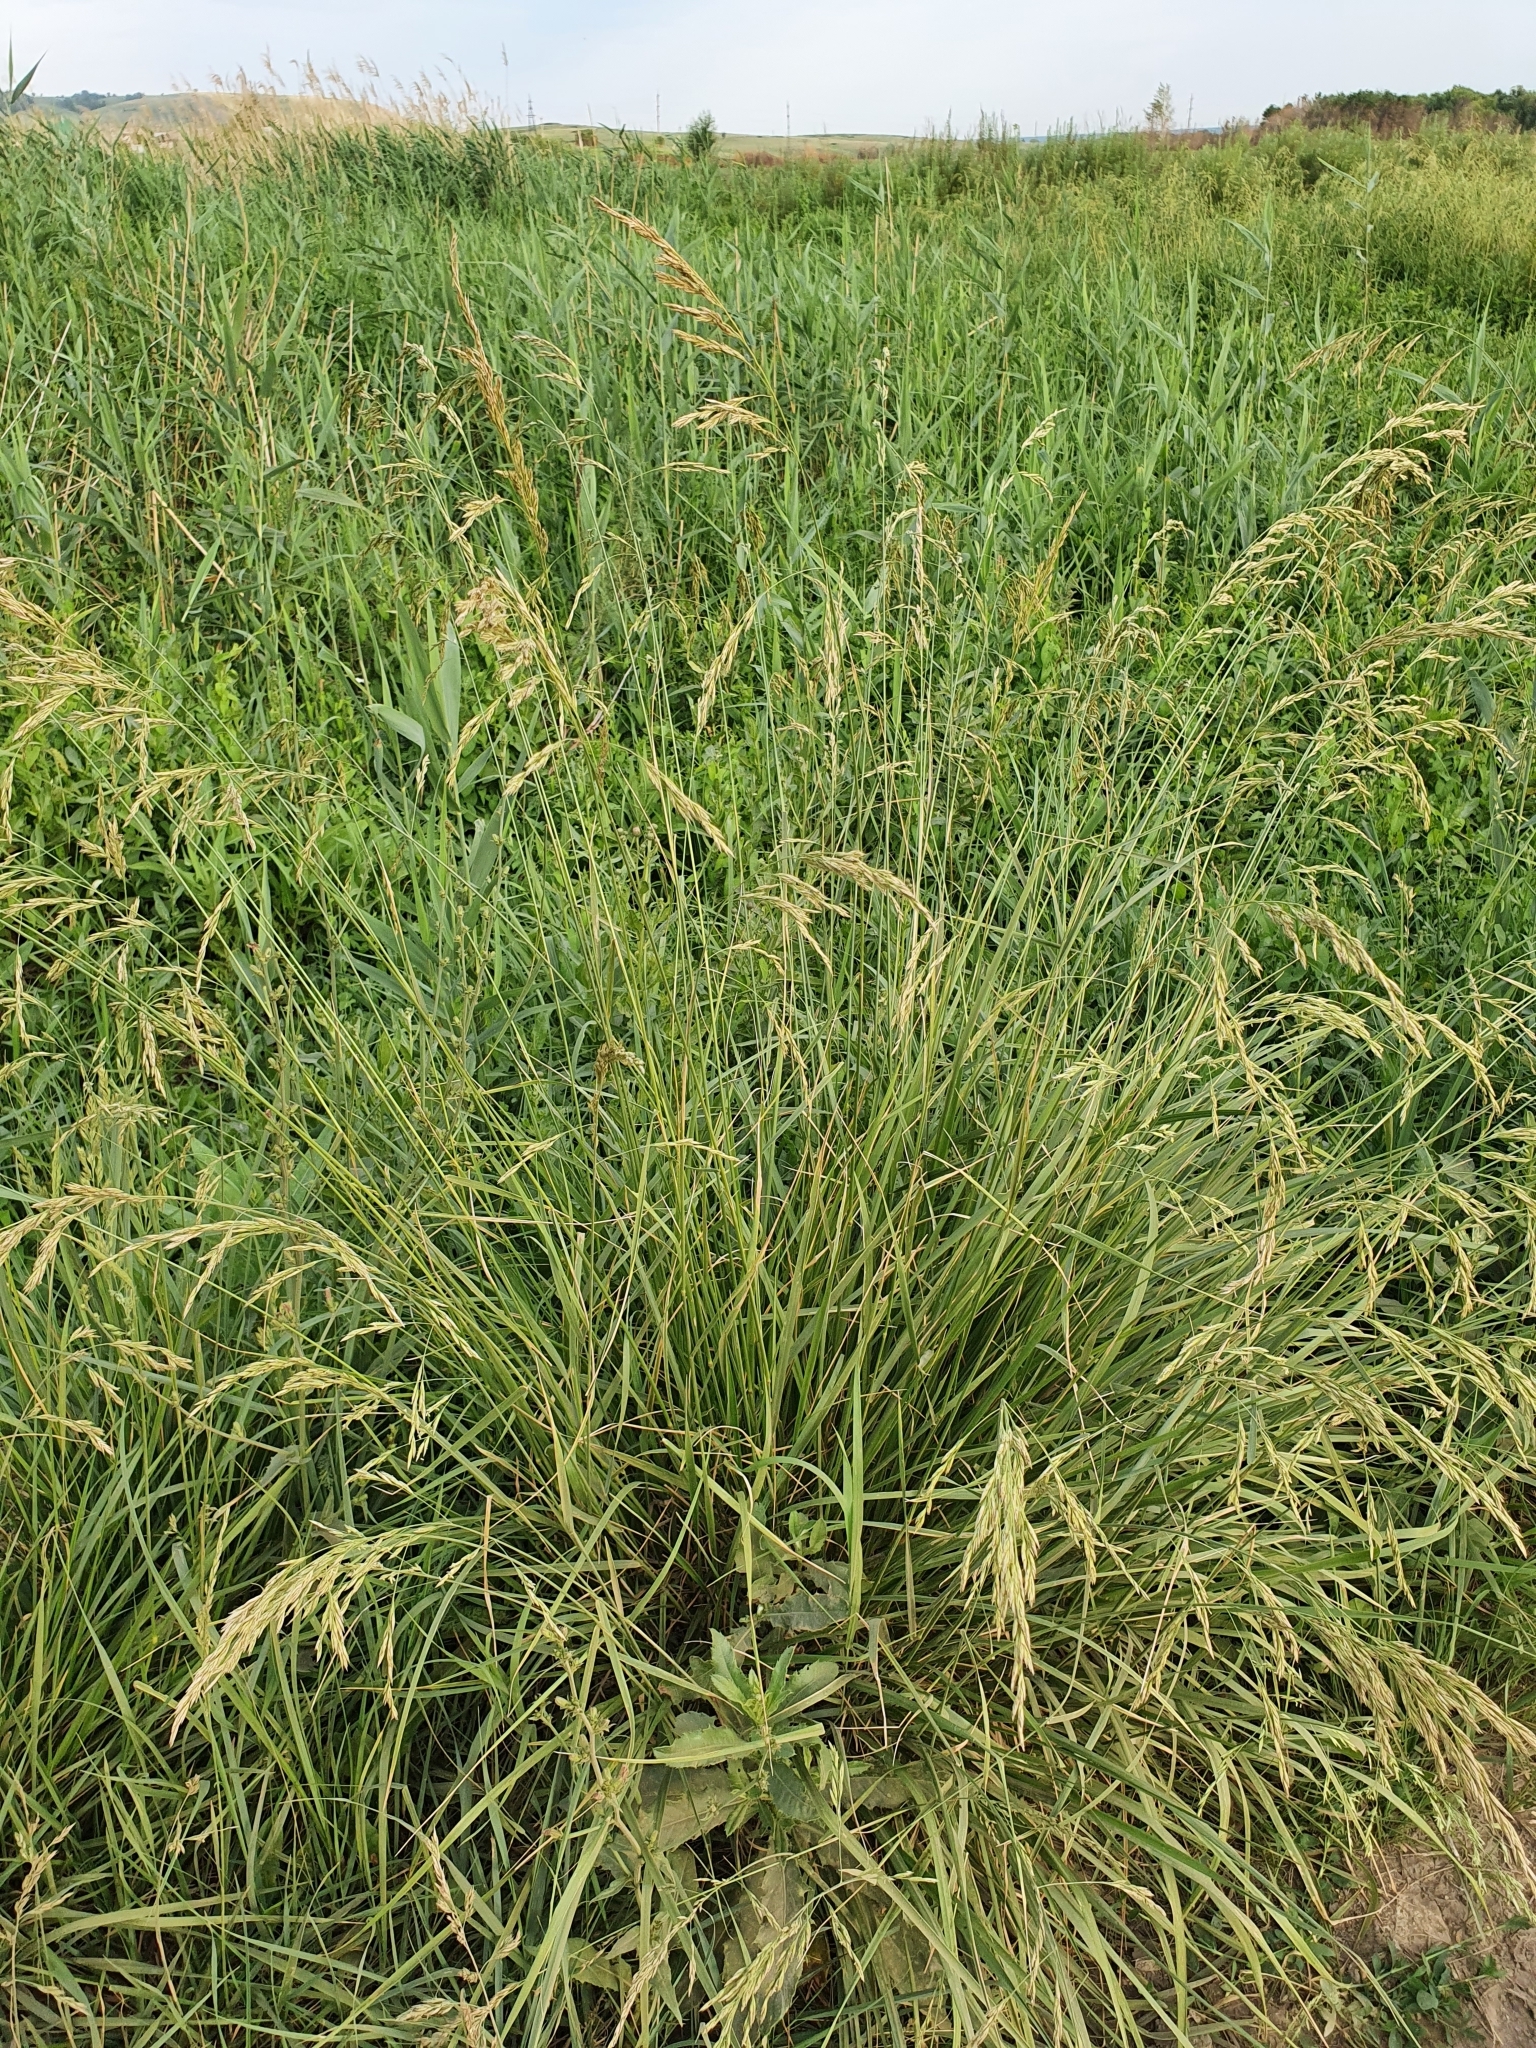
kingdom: Plantae
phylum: Tracheophyta
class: Liliopsida
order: Poales
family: Poaceae
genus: Lolium
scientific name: Lolium arundinaceum
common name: Reed fescue
